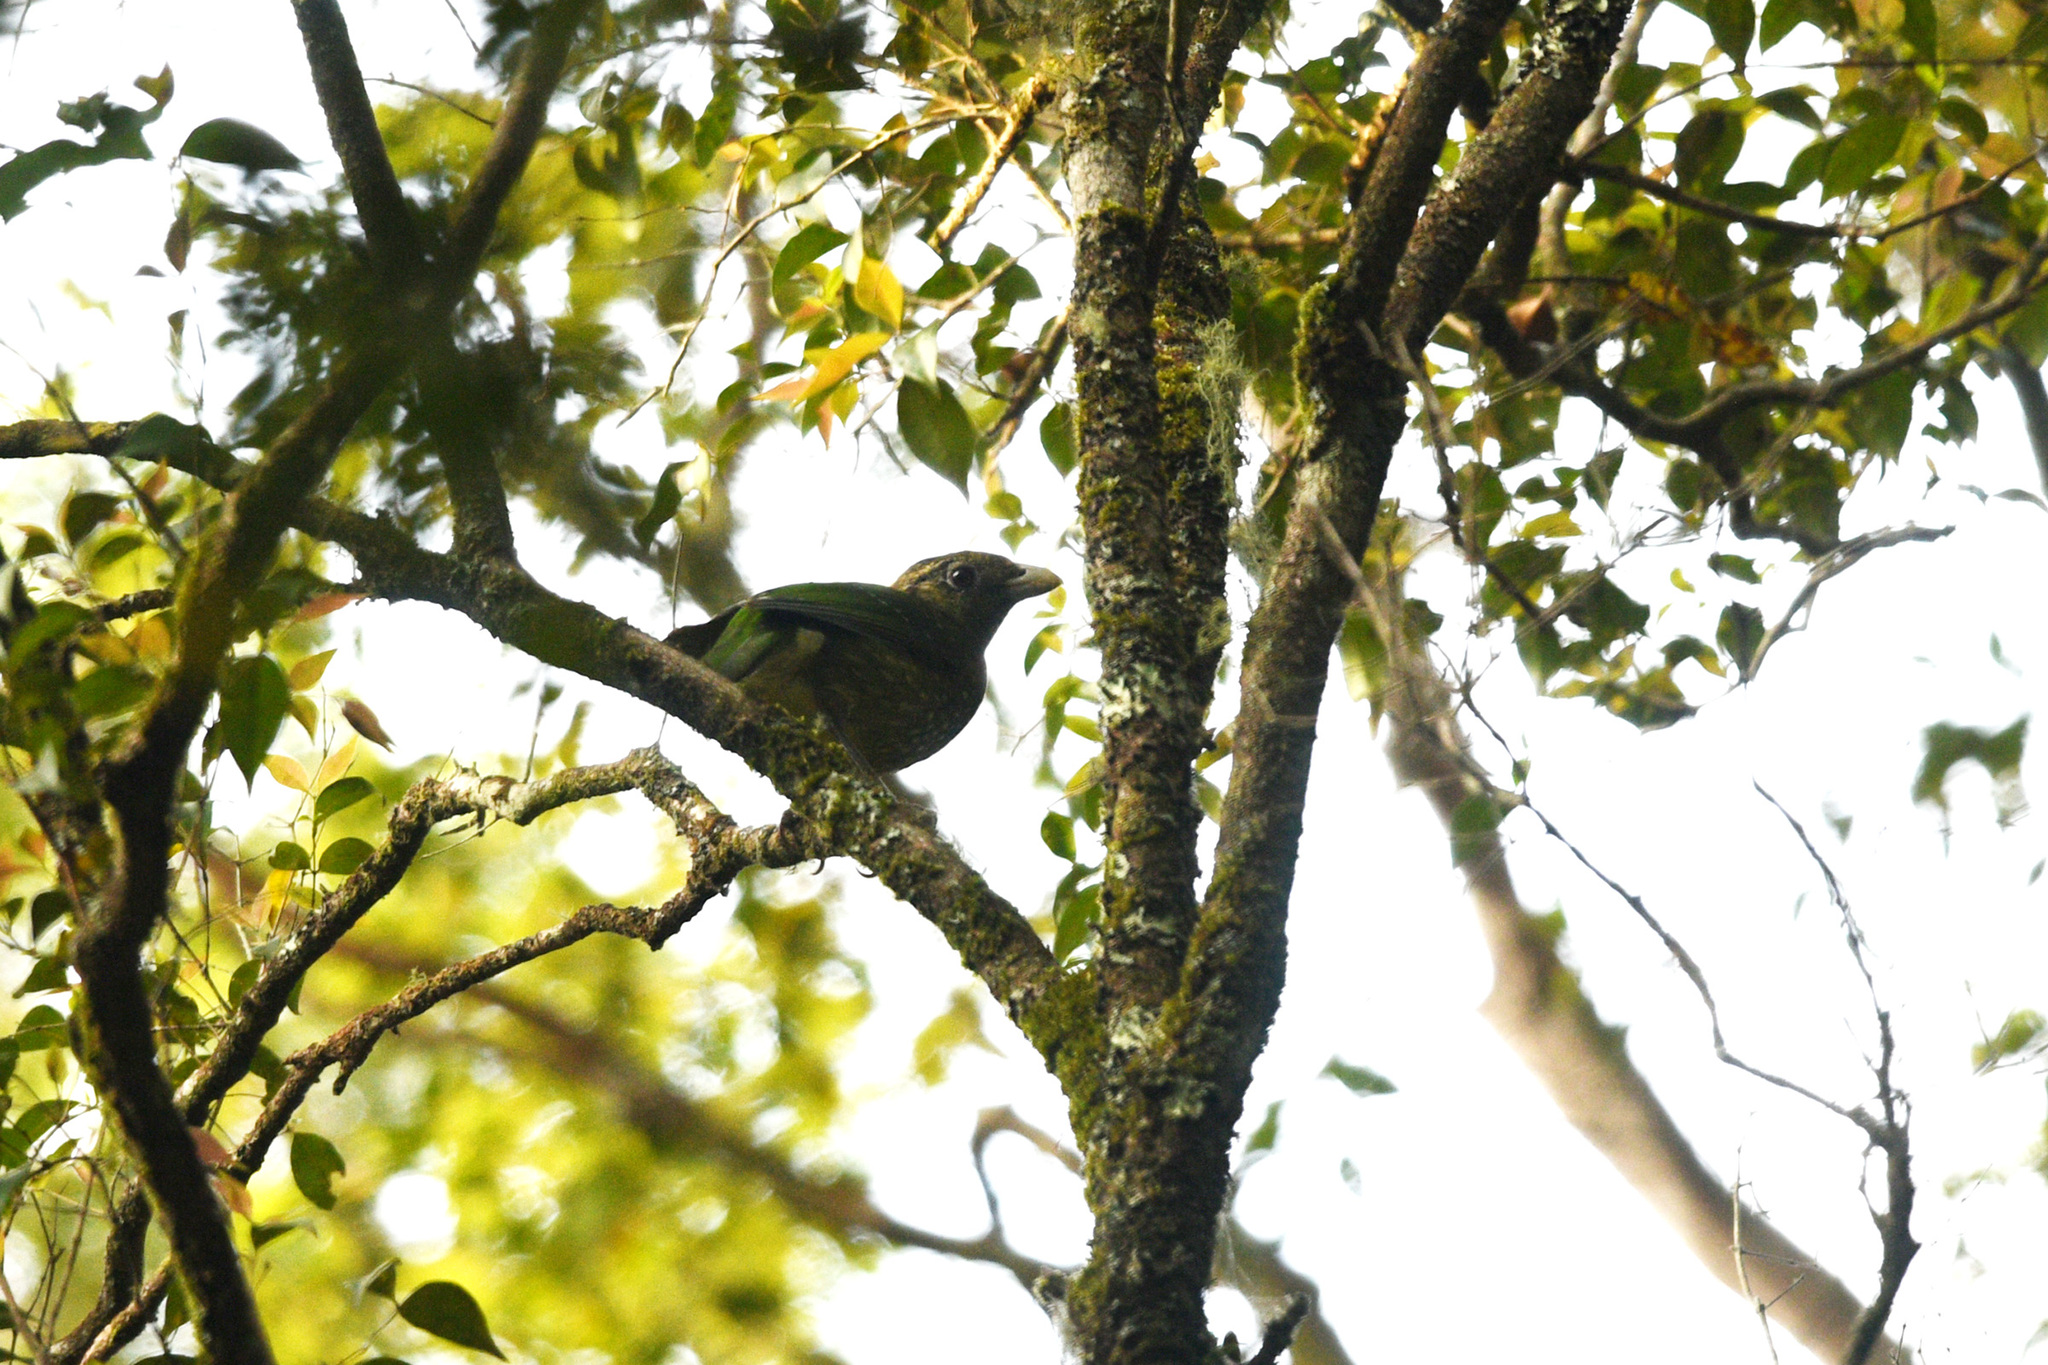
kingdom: Animalia
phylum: Chordata
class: Aves
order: Passeriformes
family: Ptilonorhynchidae
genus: Ailuroedus
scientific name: Ailuroedus crassirostris
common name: Green catbird
